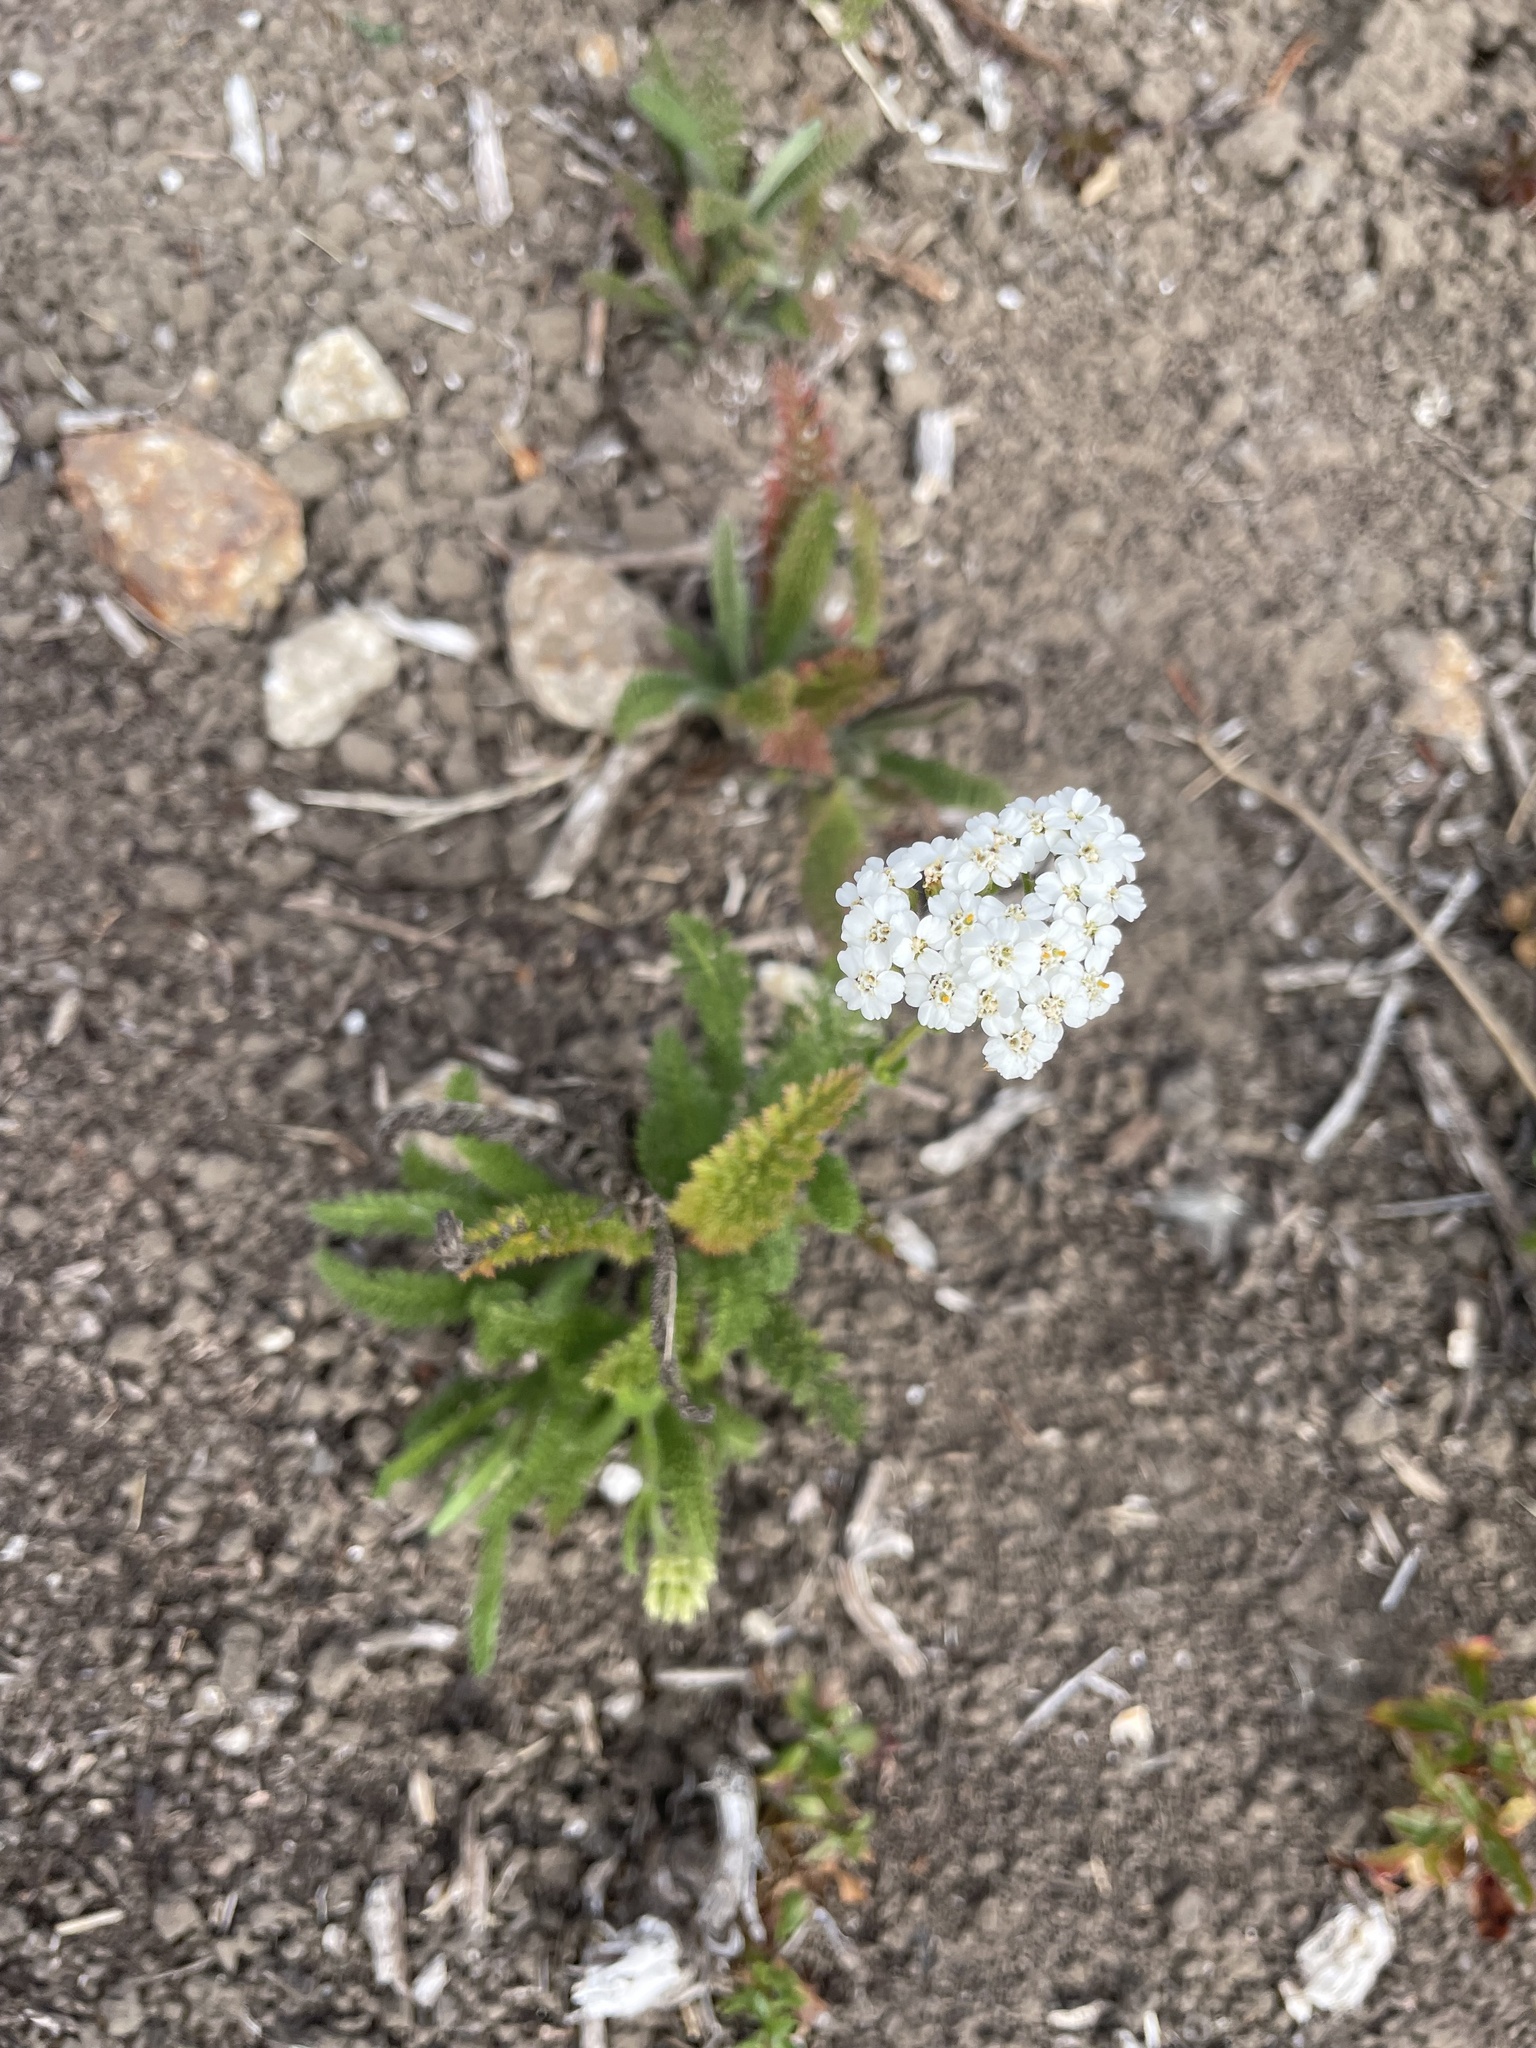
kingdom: Plantae
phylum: Tracheophyta
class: Magnoliopsida
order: Asterales
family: Asteraceae
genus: Achillea
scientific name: Achillea millefolium
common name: Yarrow
